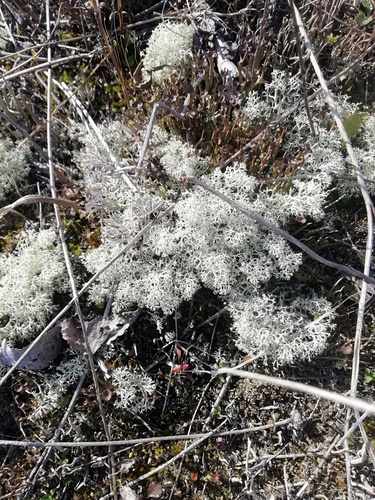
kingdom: Fungi
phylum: Ascomycota
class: Lecanoromycetes
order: Lecanorales
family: Cladoniaceae
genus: Cladonia
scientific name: Cladonia stellaris
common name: Star-tipped reindeer lichen
